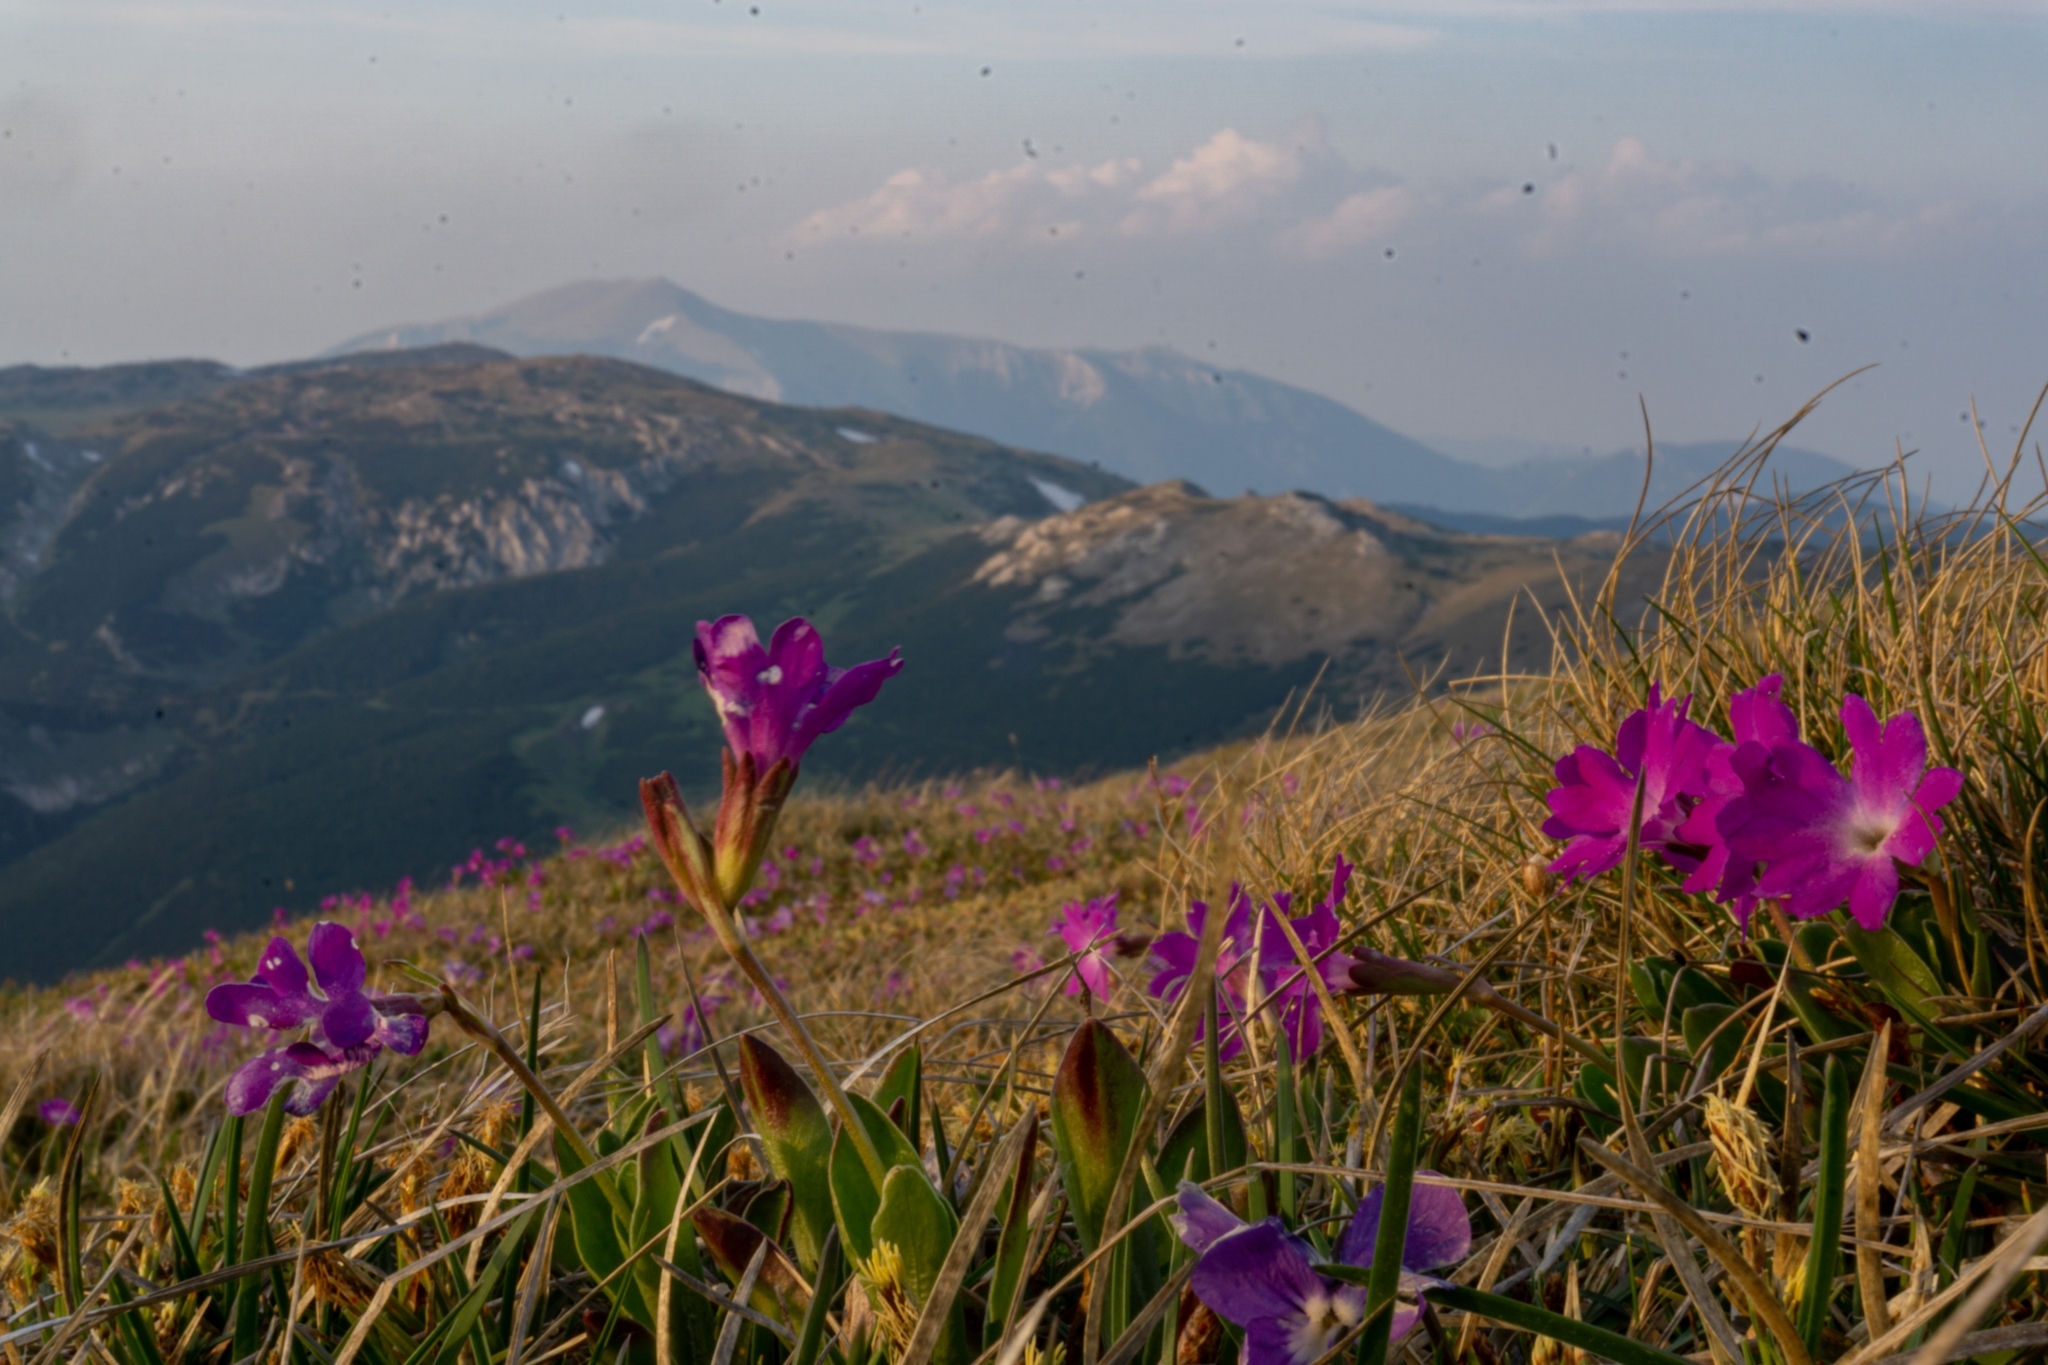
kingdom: Plantae
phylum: Tracheophyta
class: Magnoliopsida
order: Ericales
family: Primulaceae
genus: Primula
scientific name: Primula clusiana
